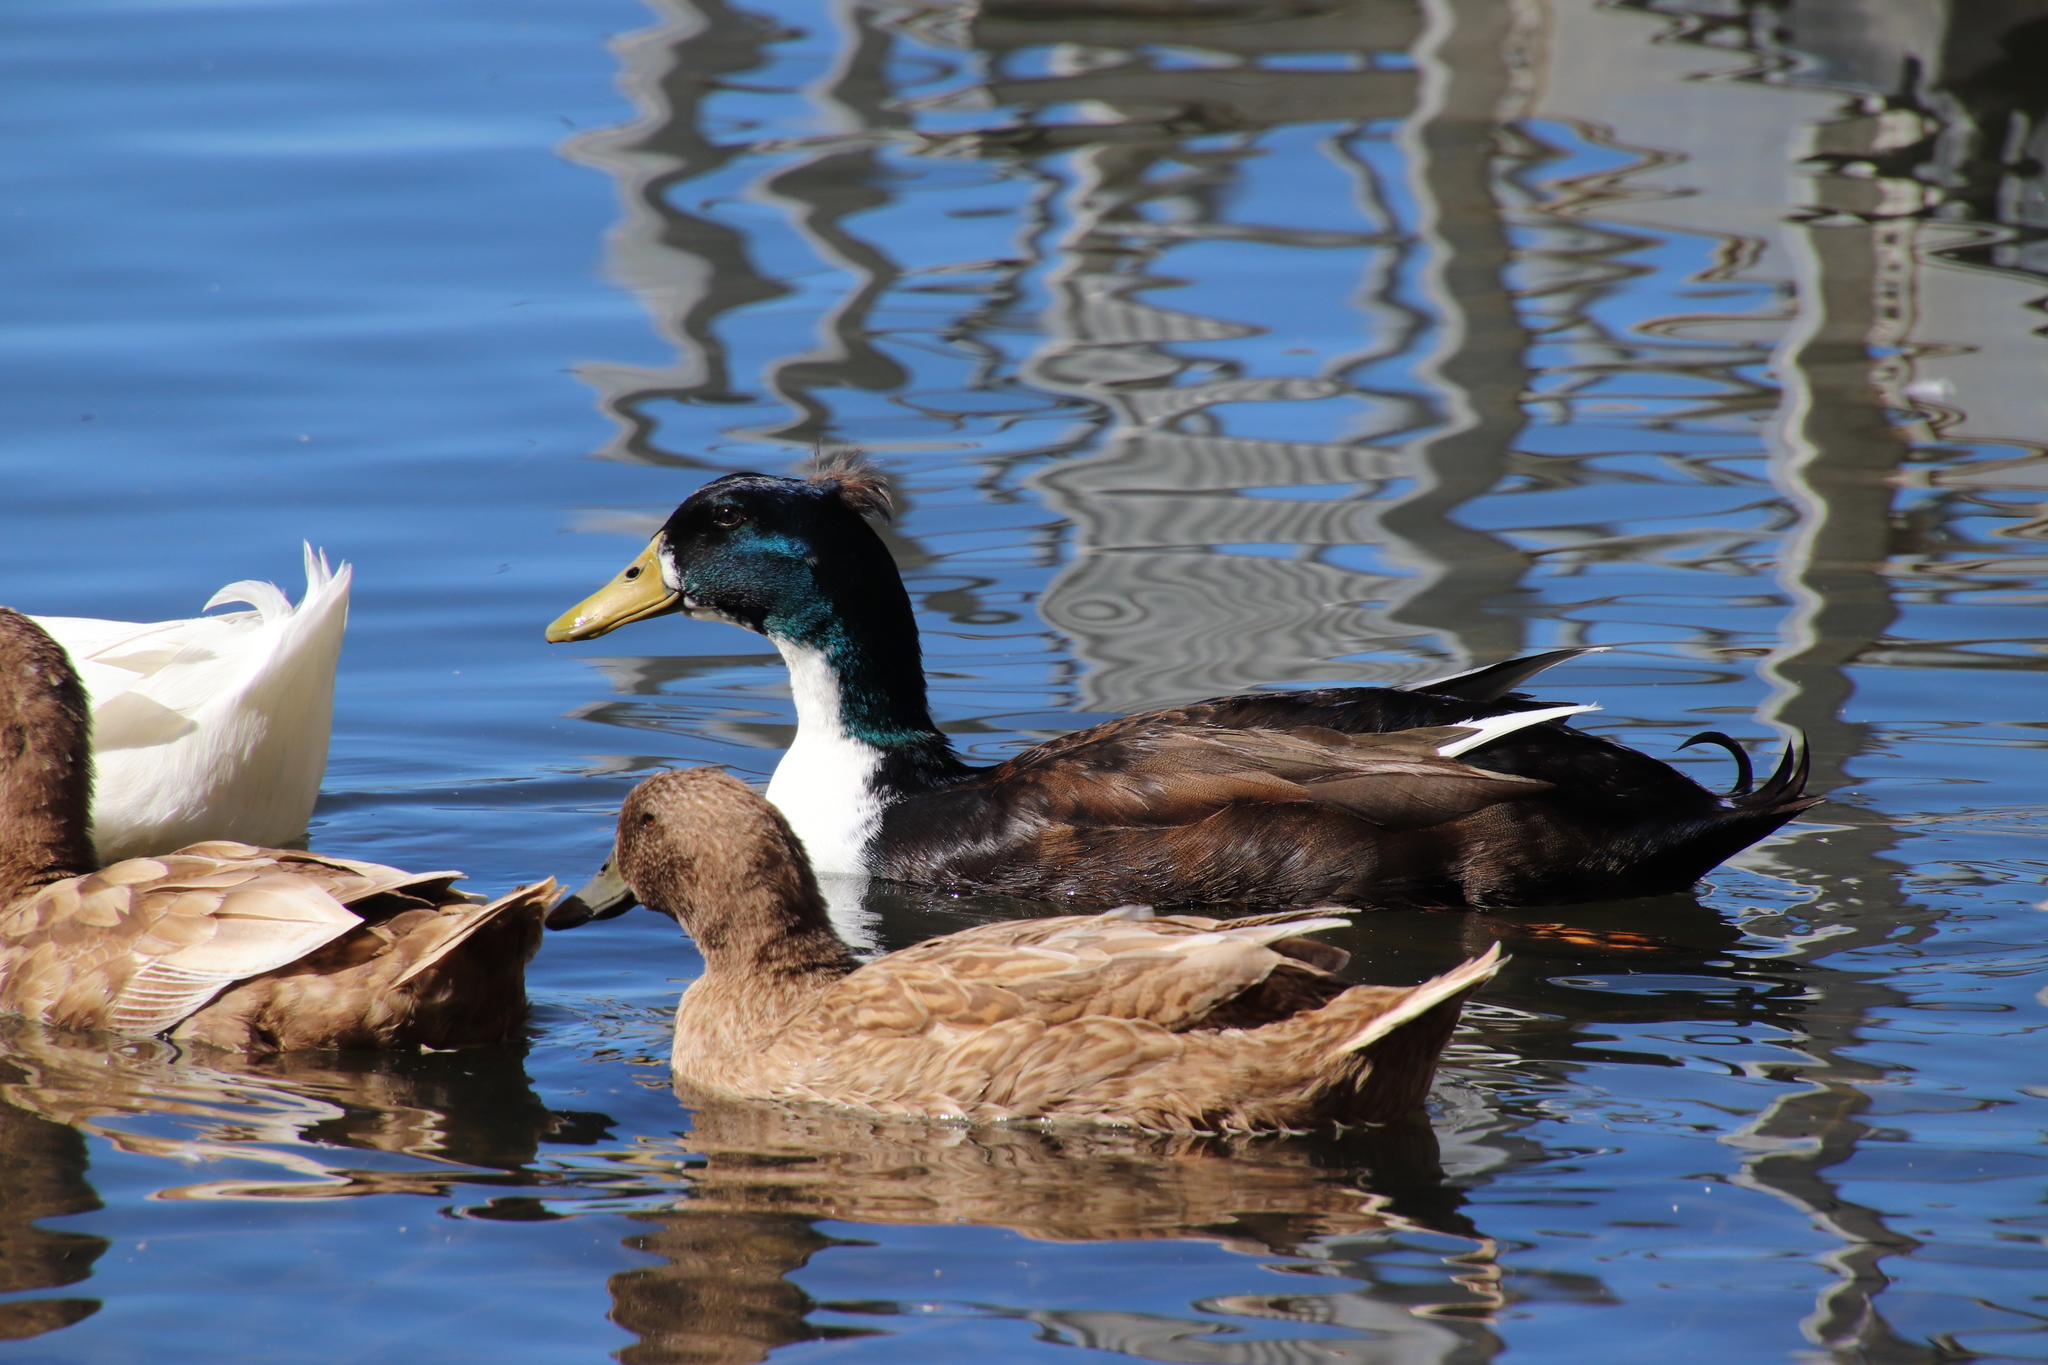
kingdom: Animalia
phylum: Chordata
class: Aves
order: Anseriformes
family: Anatidae
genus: Anas
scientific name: Anas platyrhynchos
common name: Mallard
